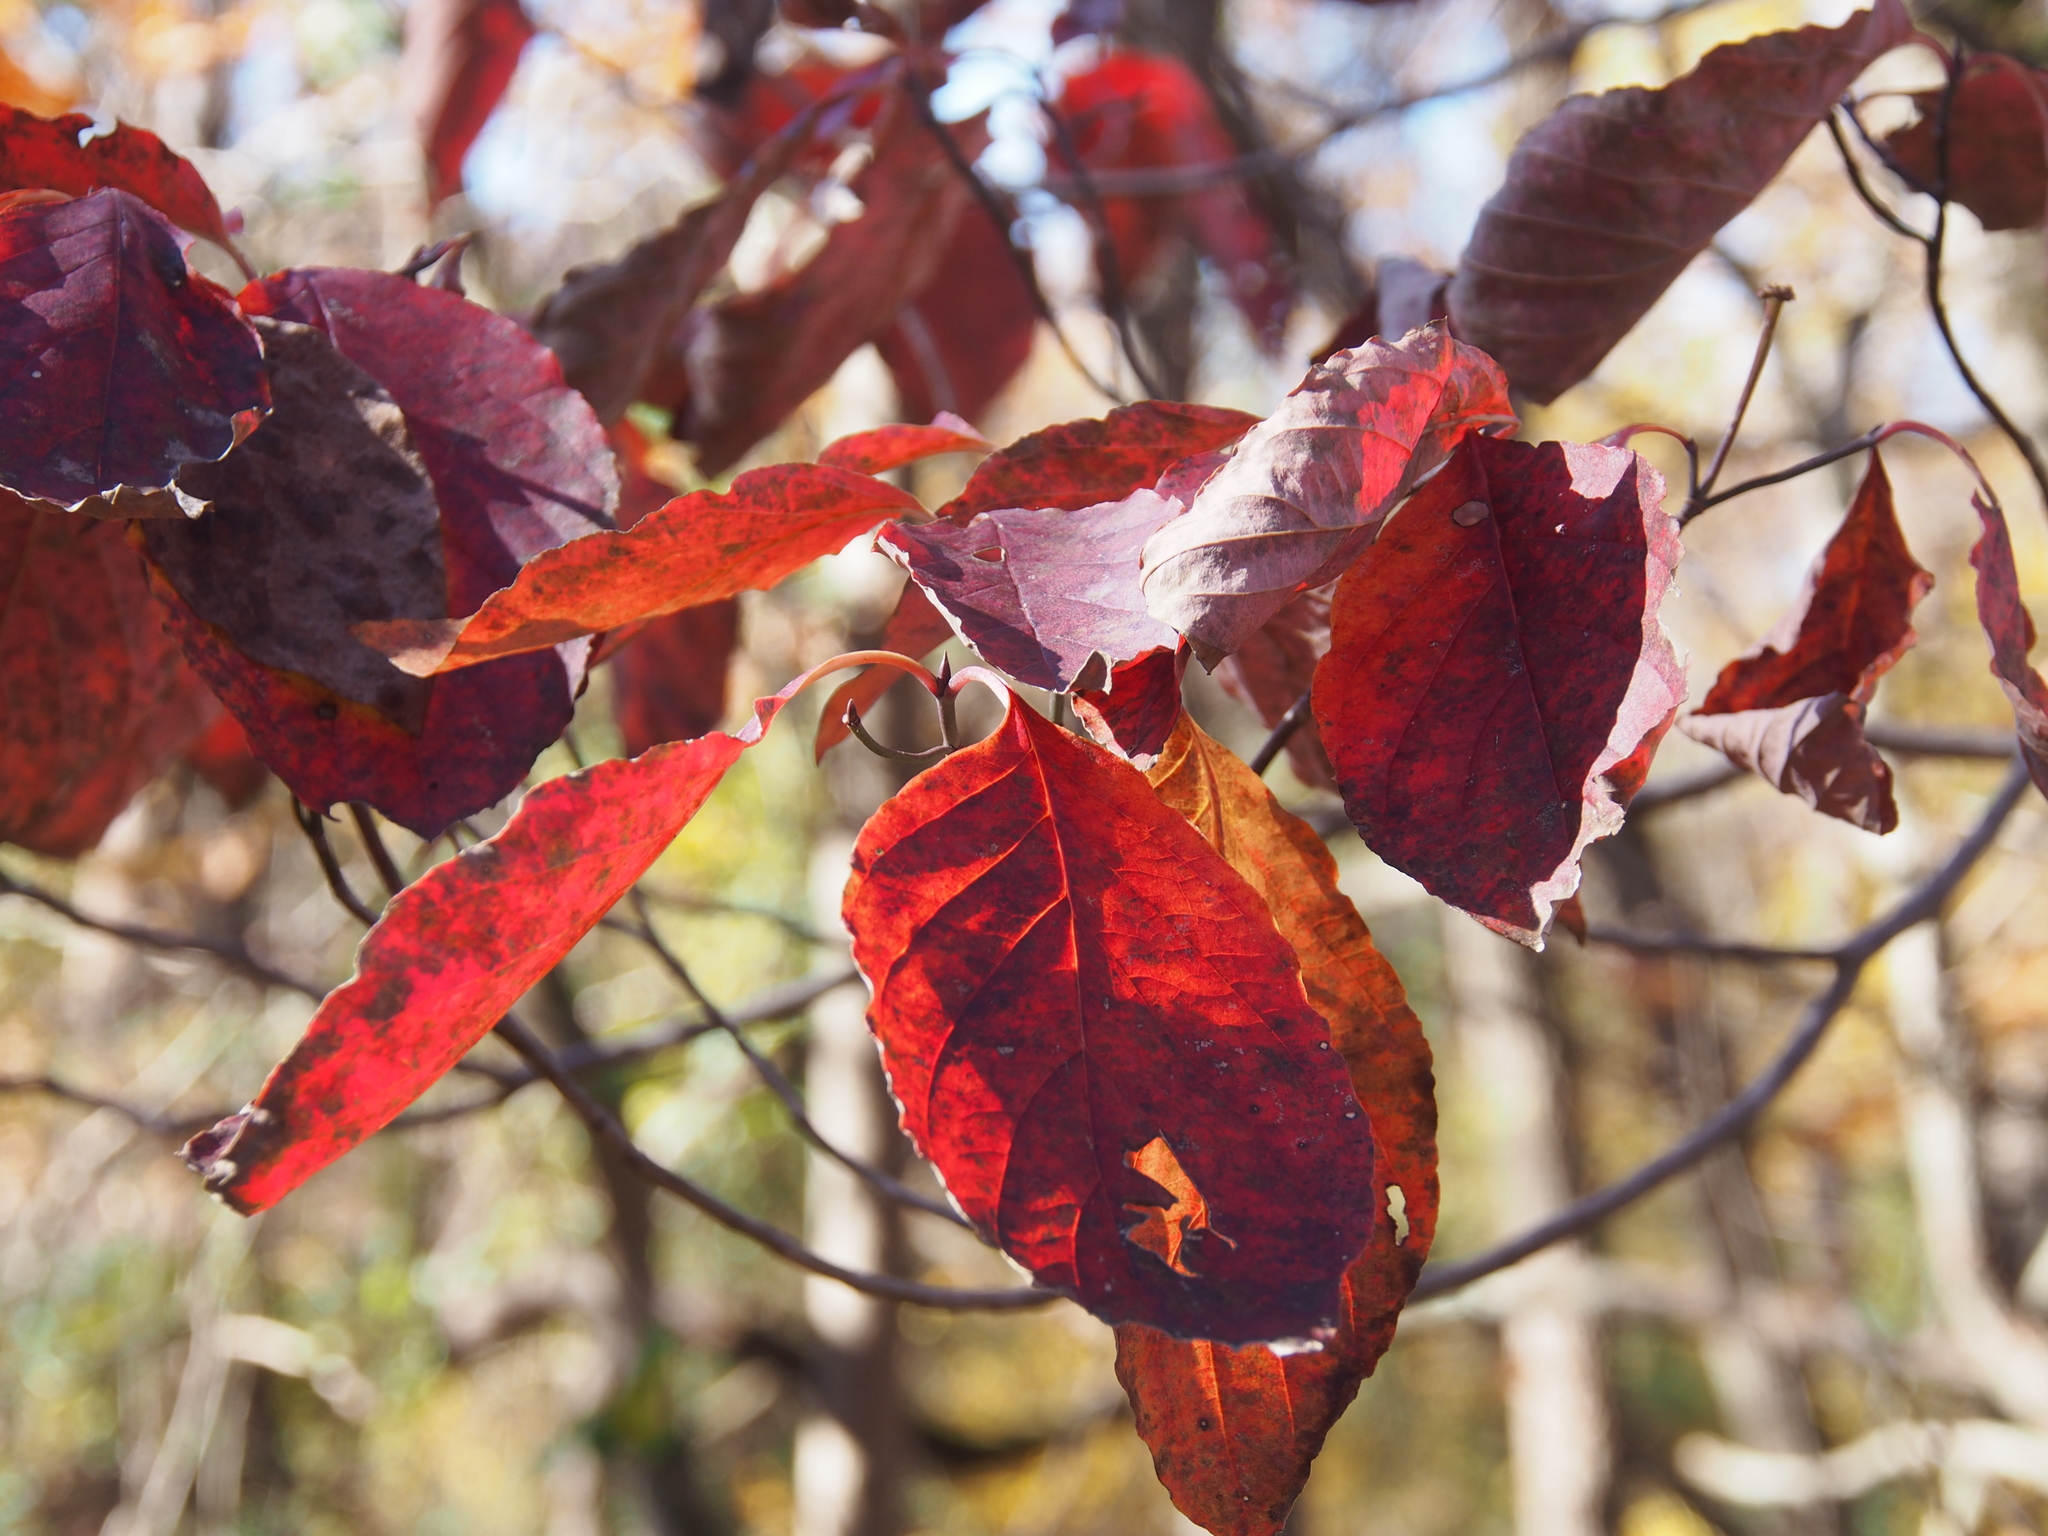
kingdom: Plantae
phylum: Tracheophyta
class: Magnoliopsida
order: Cornales
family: Cornaceae
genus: Cornus
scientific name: Cornus florida
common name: Flowering dogwood
